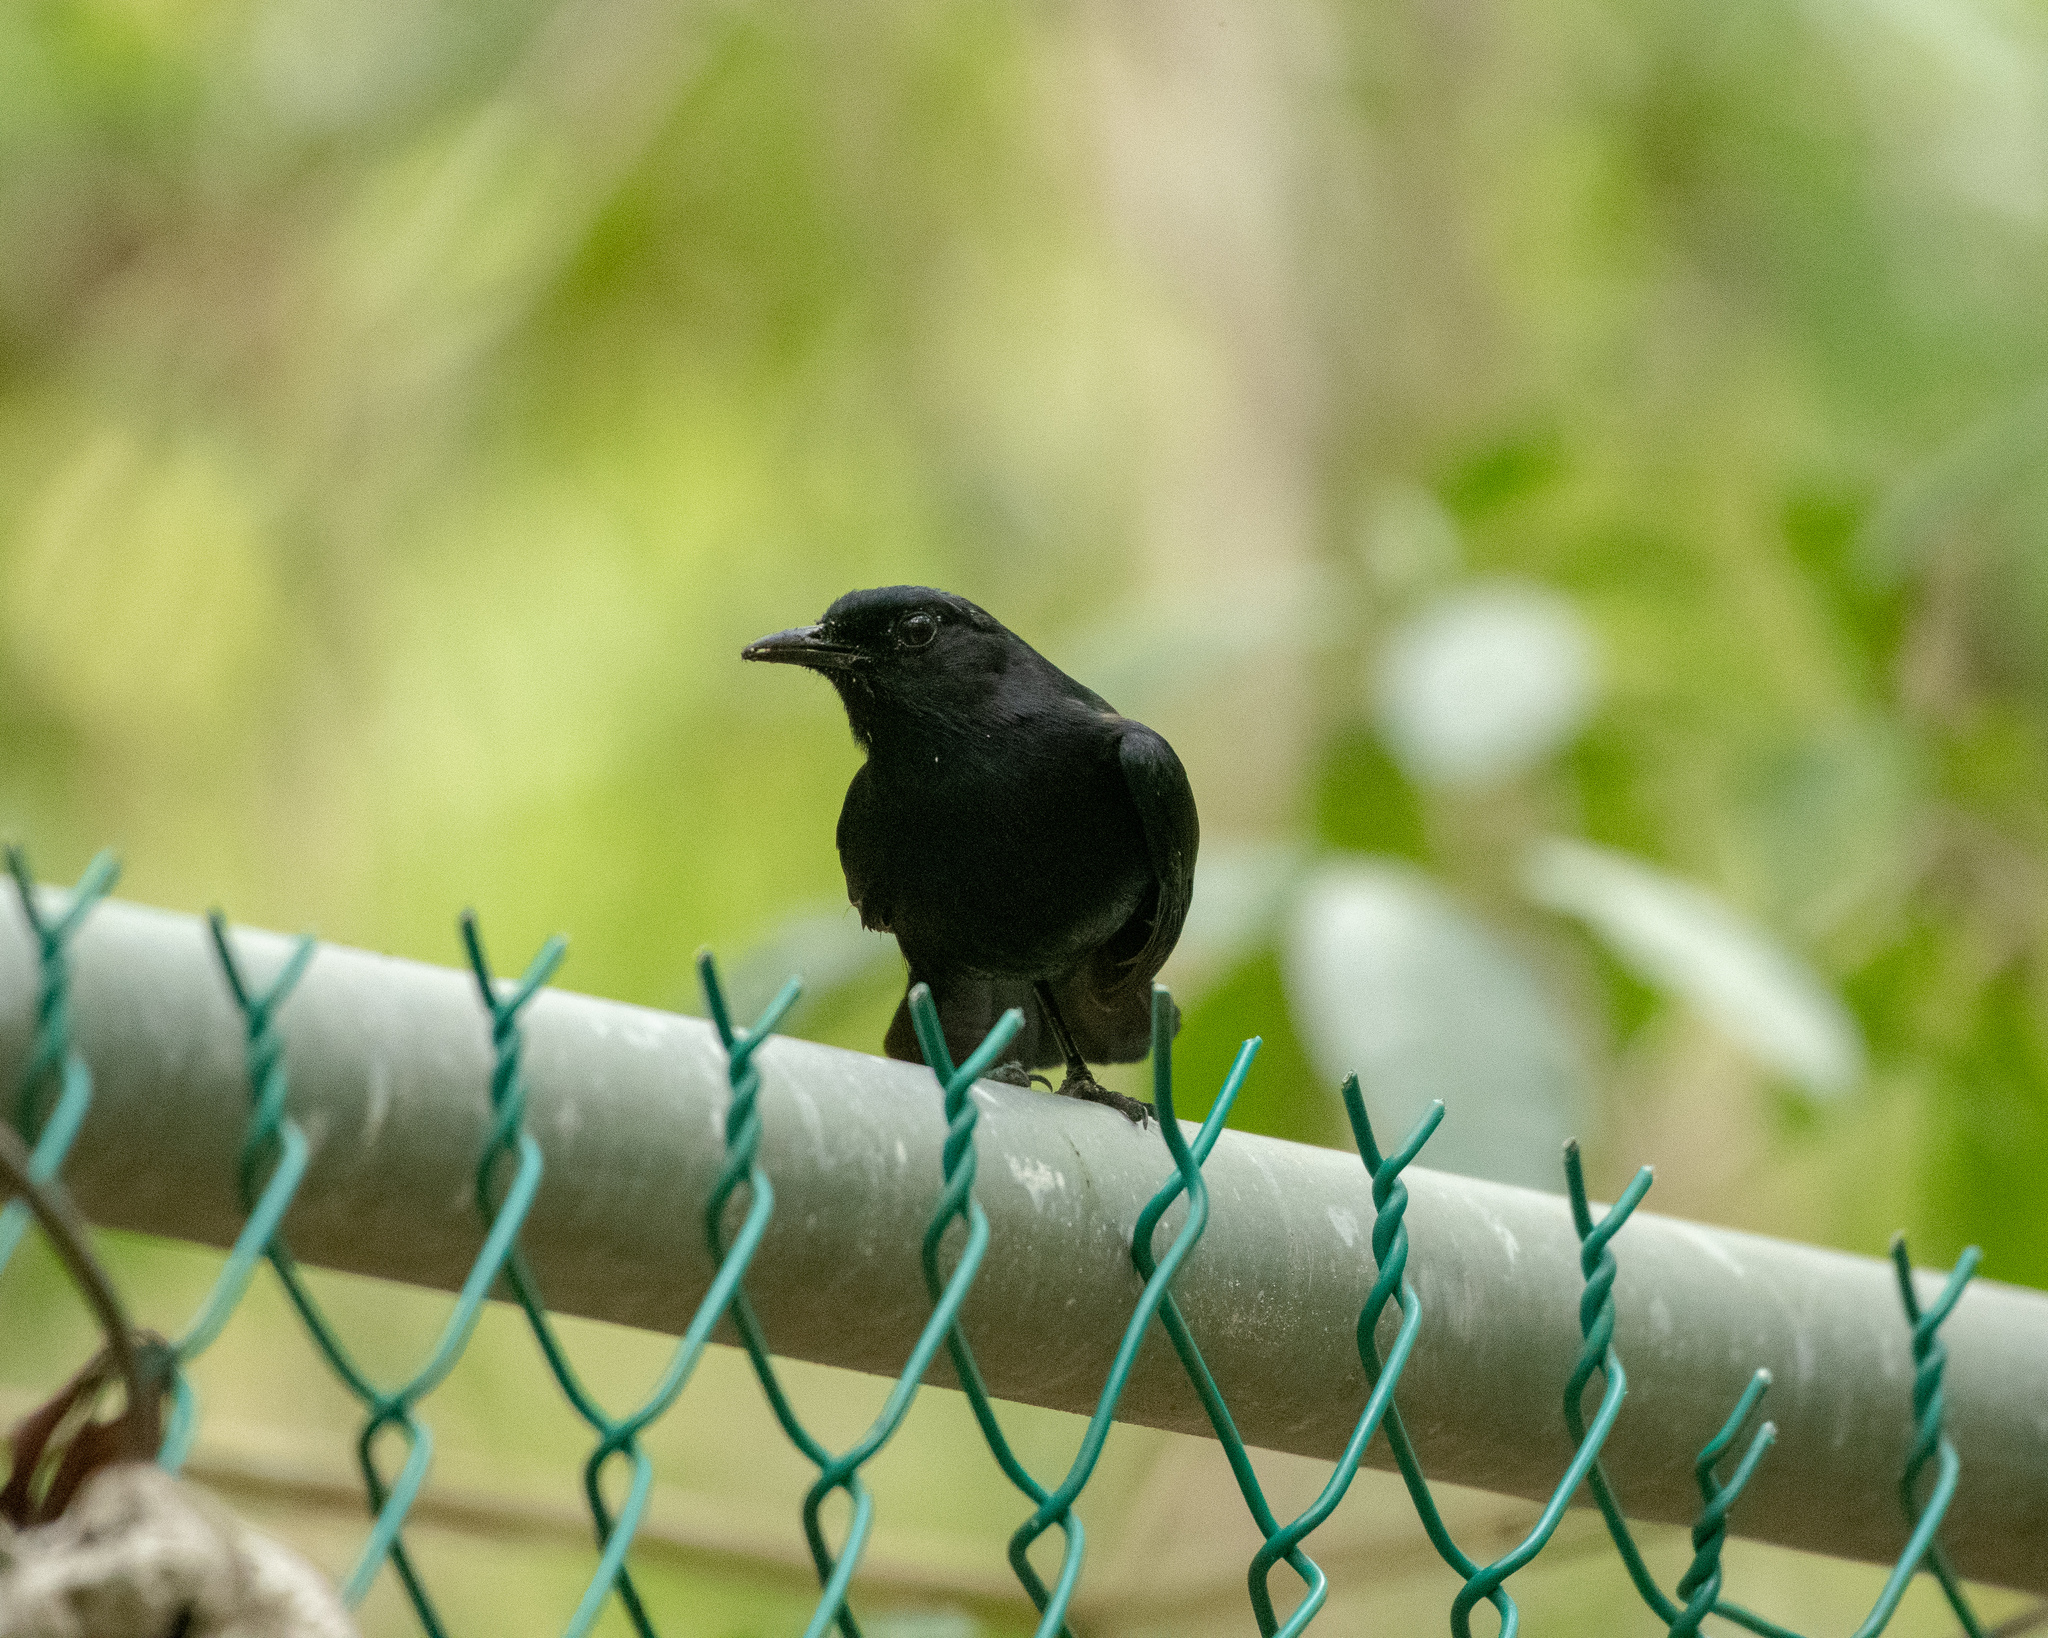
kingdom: Animalia
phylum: Chordata
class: Aves
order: Passeriformes
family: Mimidae
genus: Melanoptila
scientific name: Melanoptila glabrirostris
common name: Black catbird
